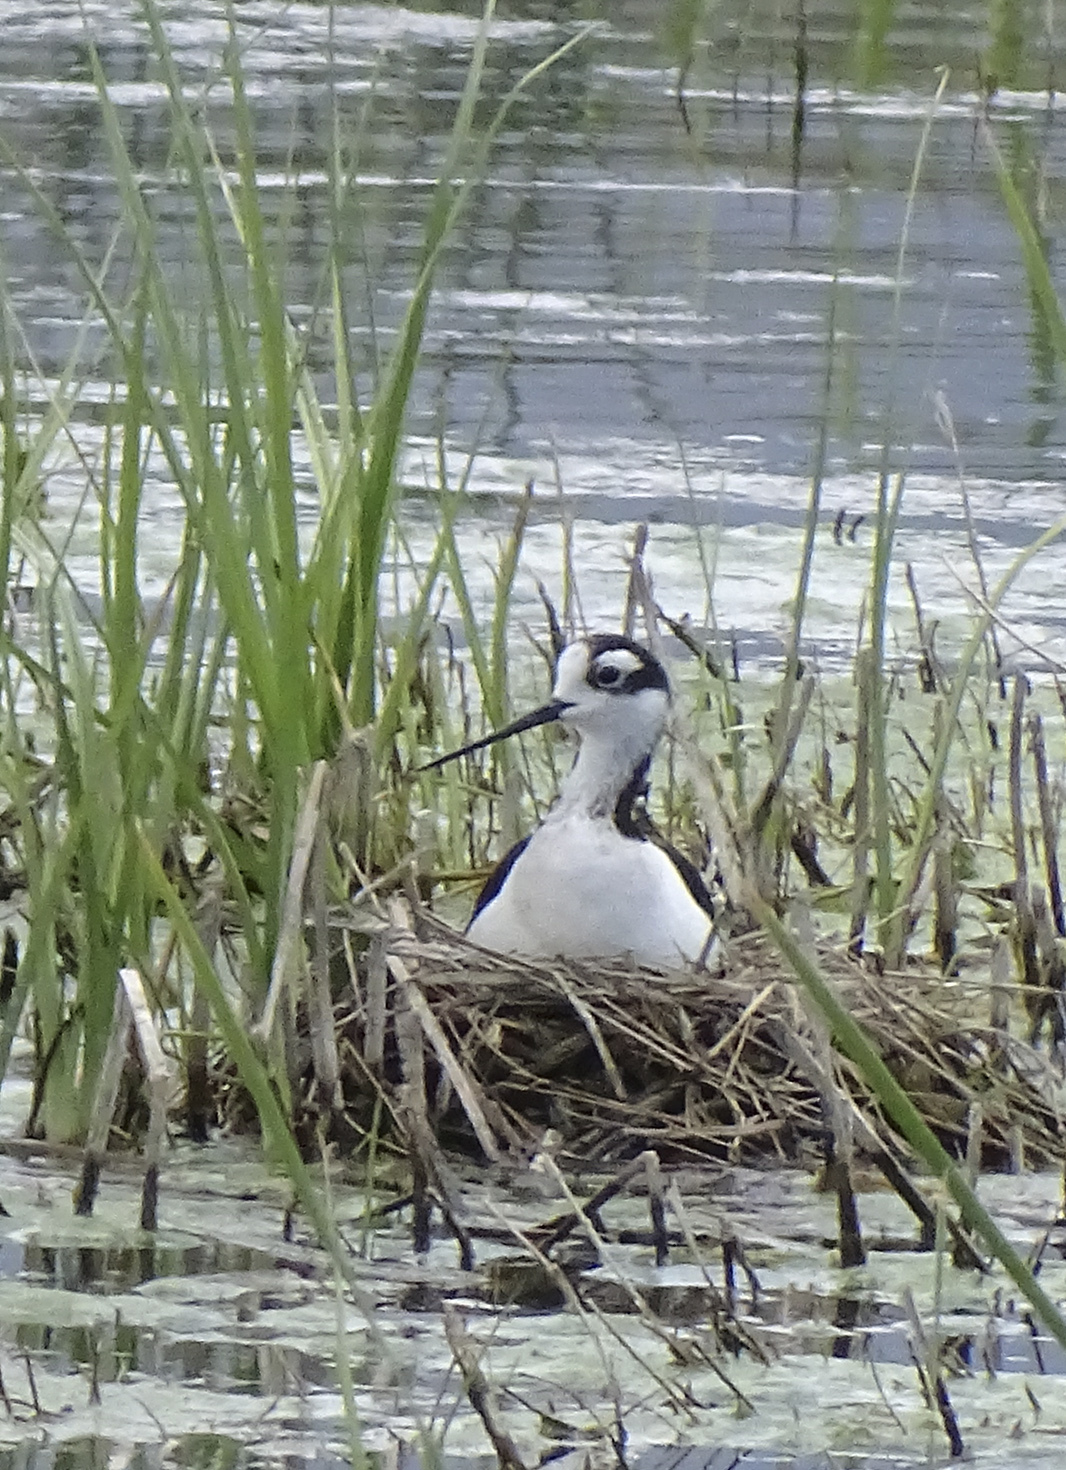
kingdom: Animalia
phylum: Chordata
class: Aves
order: Charadriiformes
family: Recurvirostridae
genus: Himantopus
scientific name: Himantopus mexicanus
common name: Black-necked stilt
